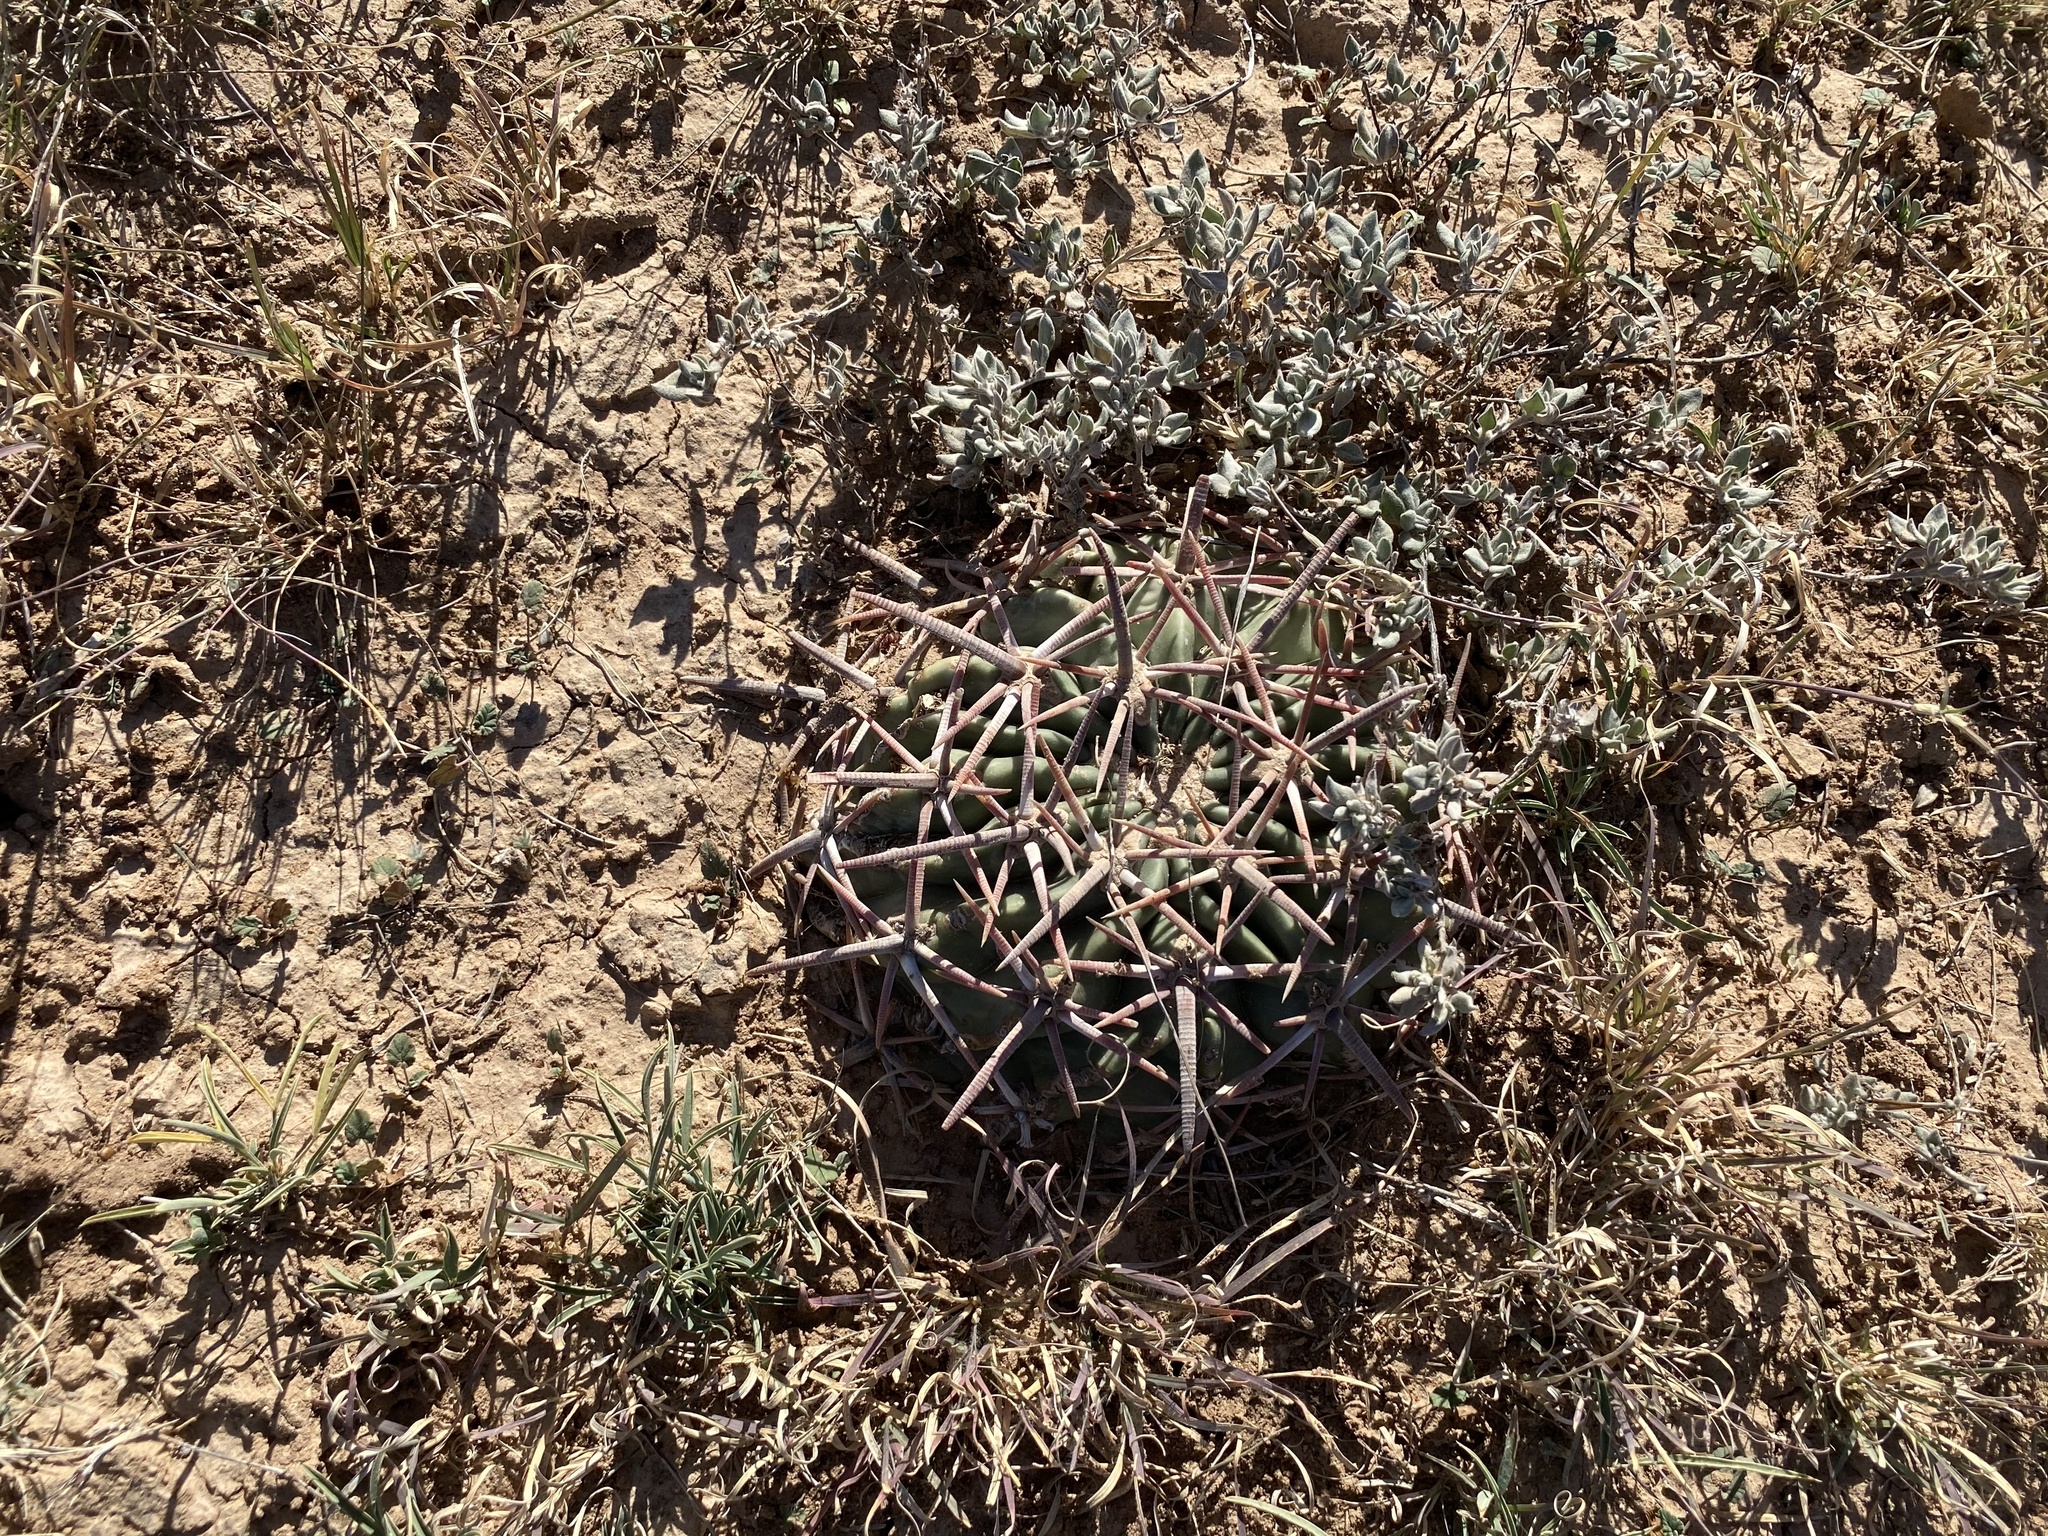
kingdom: Plantae
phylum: Tracheophyta
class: Magnoliopsida
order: Caryophyllales
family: Cactaceae
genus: Echinocactus
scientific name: Echinocactus texensis
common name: Devil's pincushion
